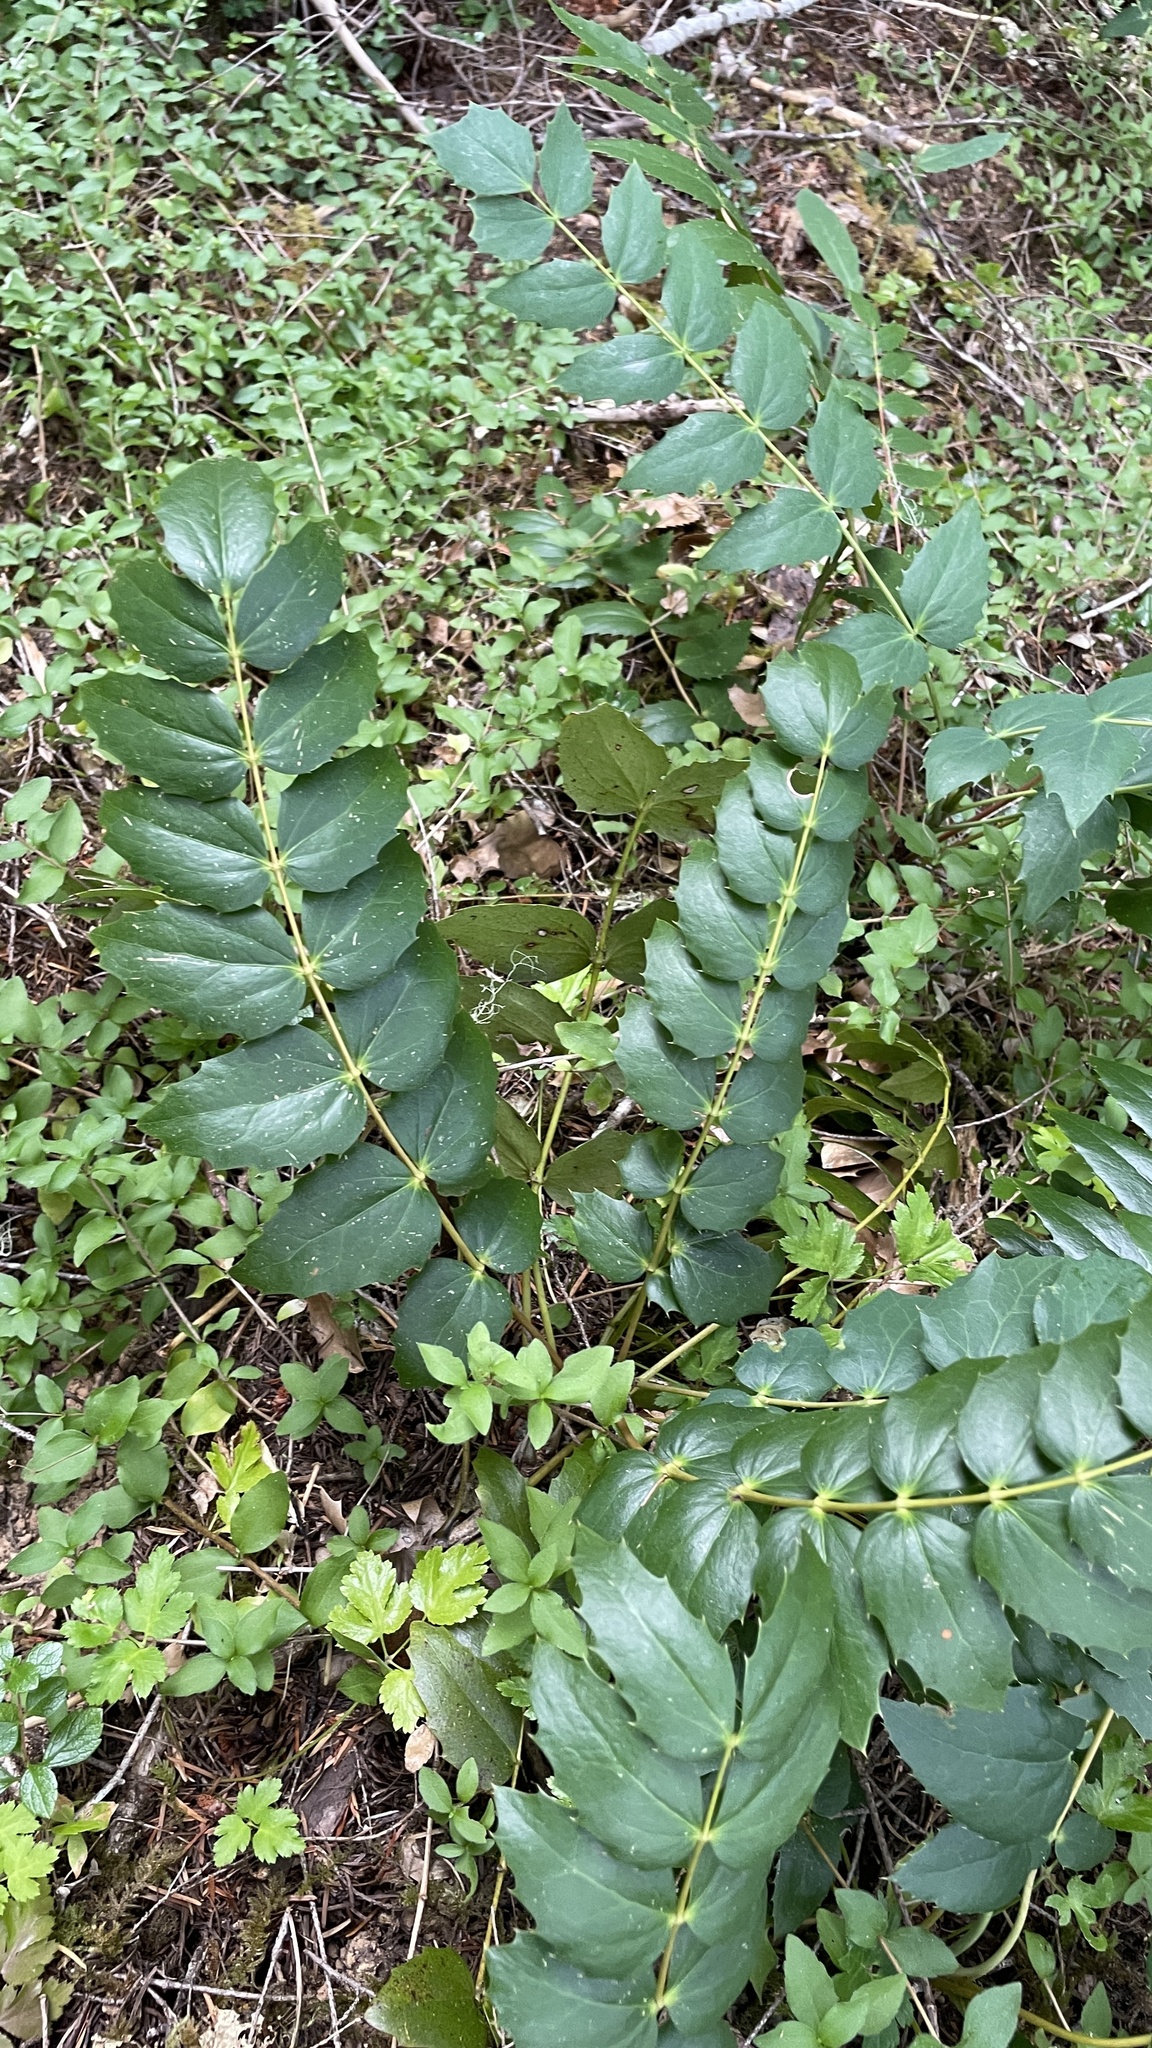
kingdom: Plantae
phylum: Tracheophyta
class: Magnoliopsida
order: Ranunculales
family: Berberidaceae
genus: Mahonia
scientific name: Mahonia nervosa
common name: Cascade oregon-grape
